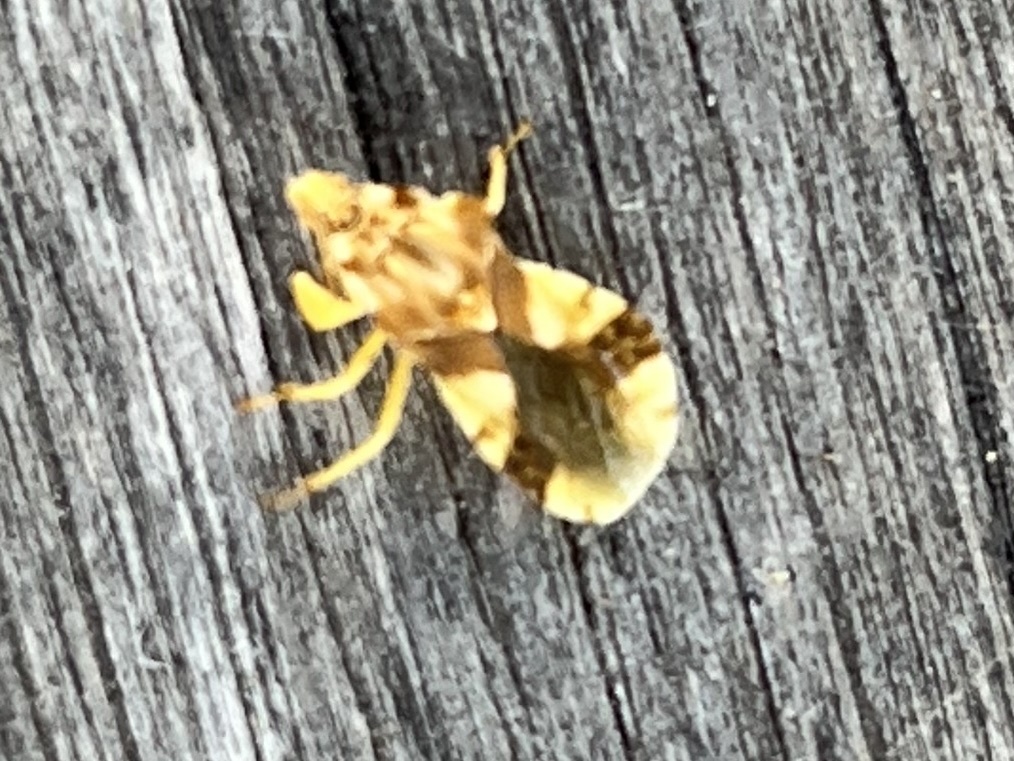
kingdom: Animalia
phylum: Arthropoda
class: Insecta
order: Hemiptera
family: Reduviidae
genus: Phymata
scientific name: Phymata americana
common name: Jagged ambush bug
